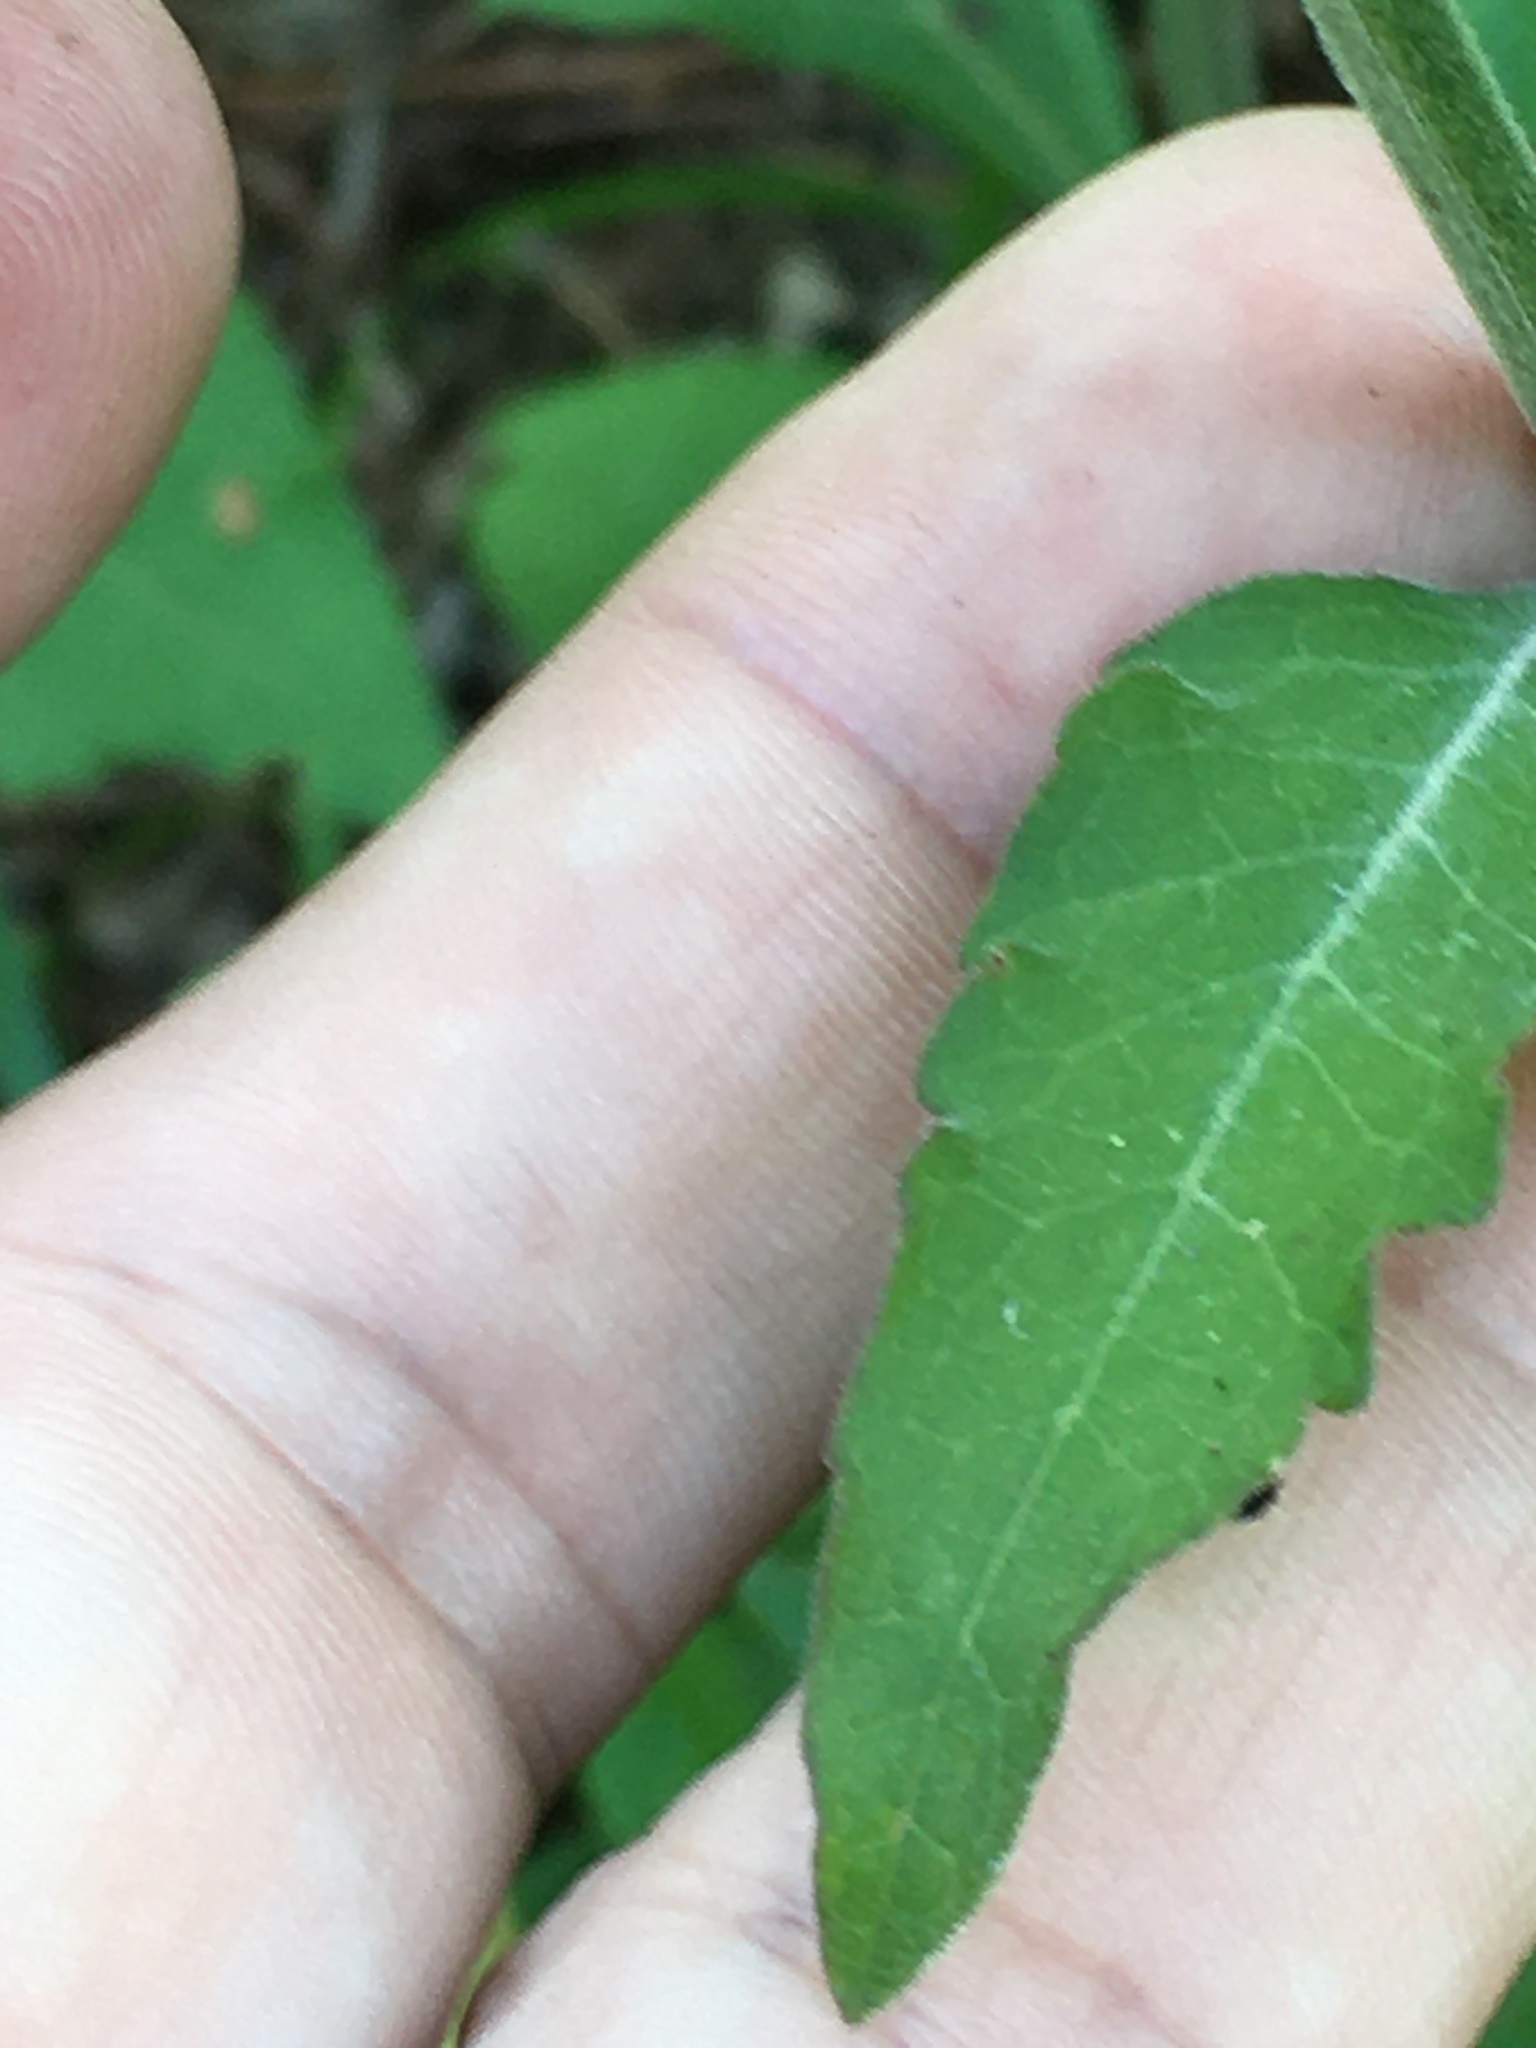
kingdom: Plantae
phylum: Tracheophyta
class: Magnoliopsida
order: Lamiales
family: Orobanchaceae
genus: Aureolaria
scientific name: Aureolaria virginica
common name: Downy false foxglove
